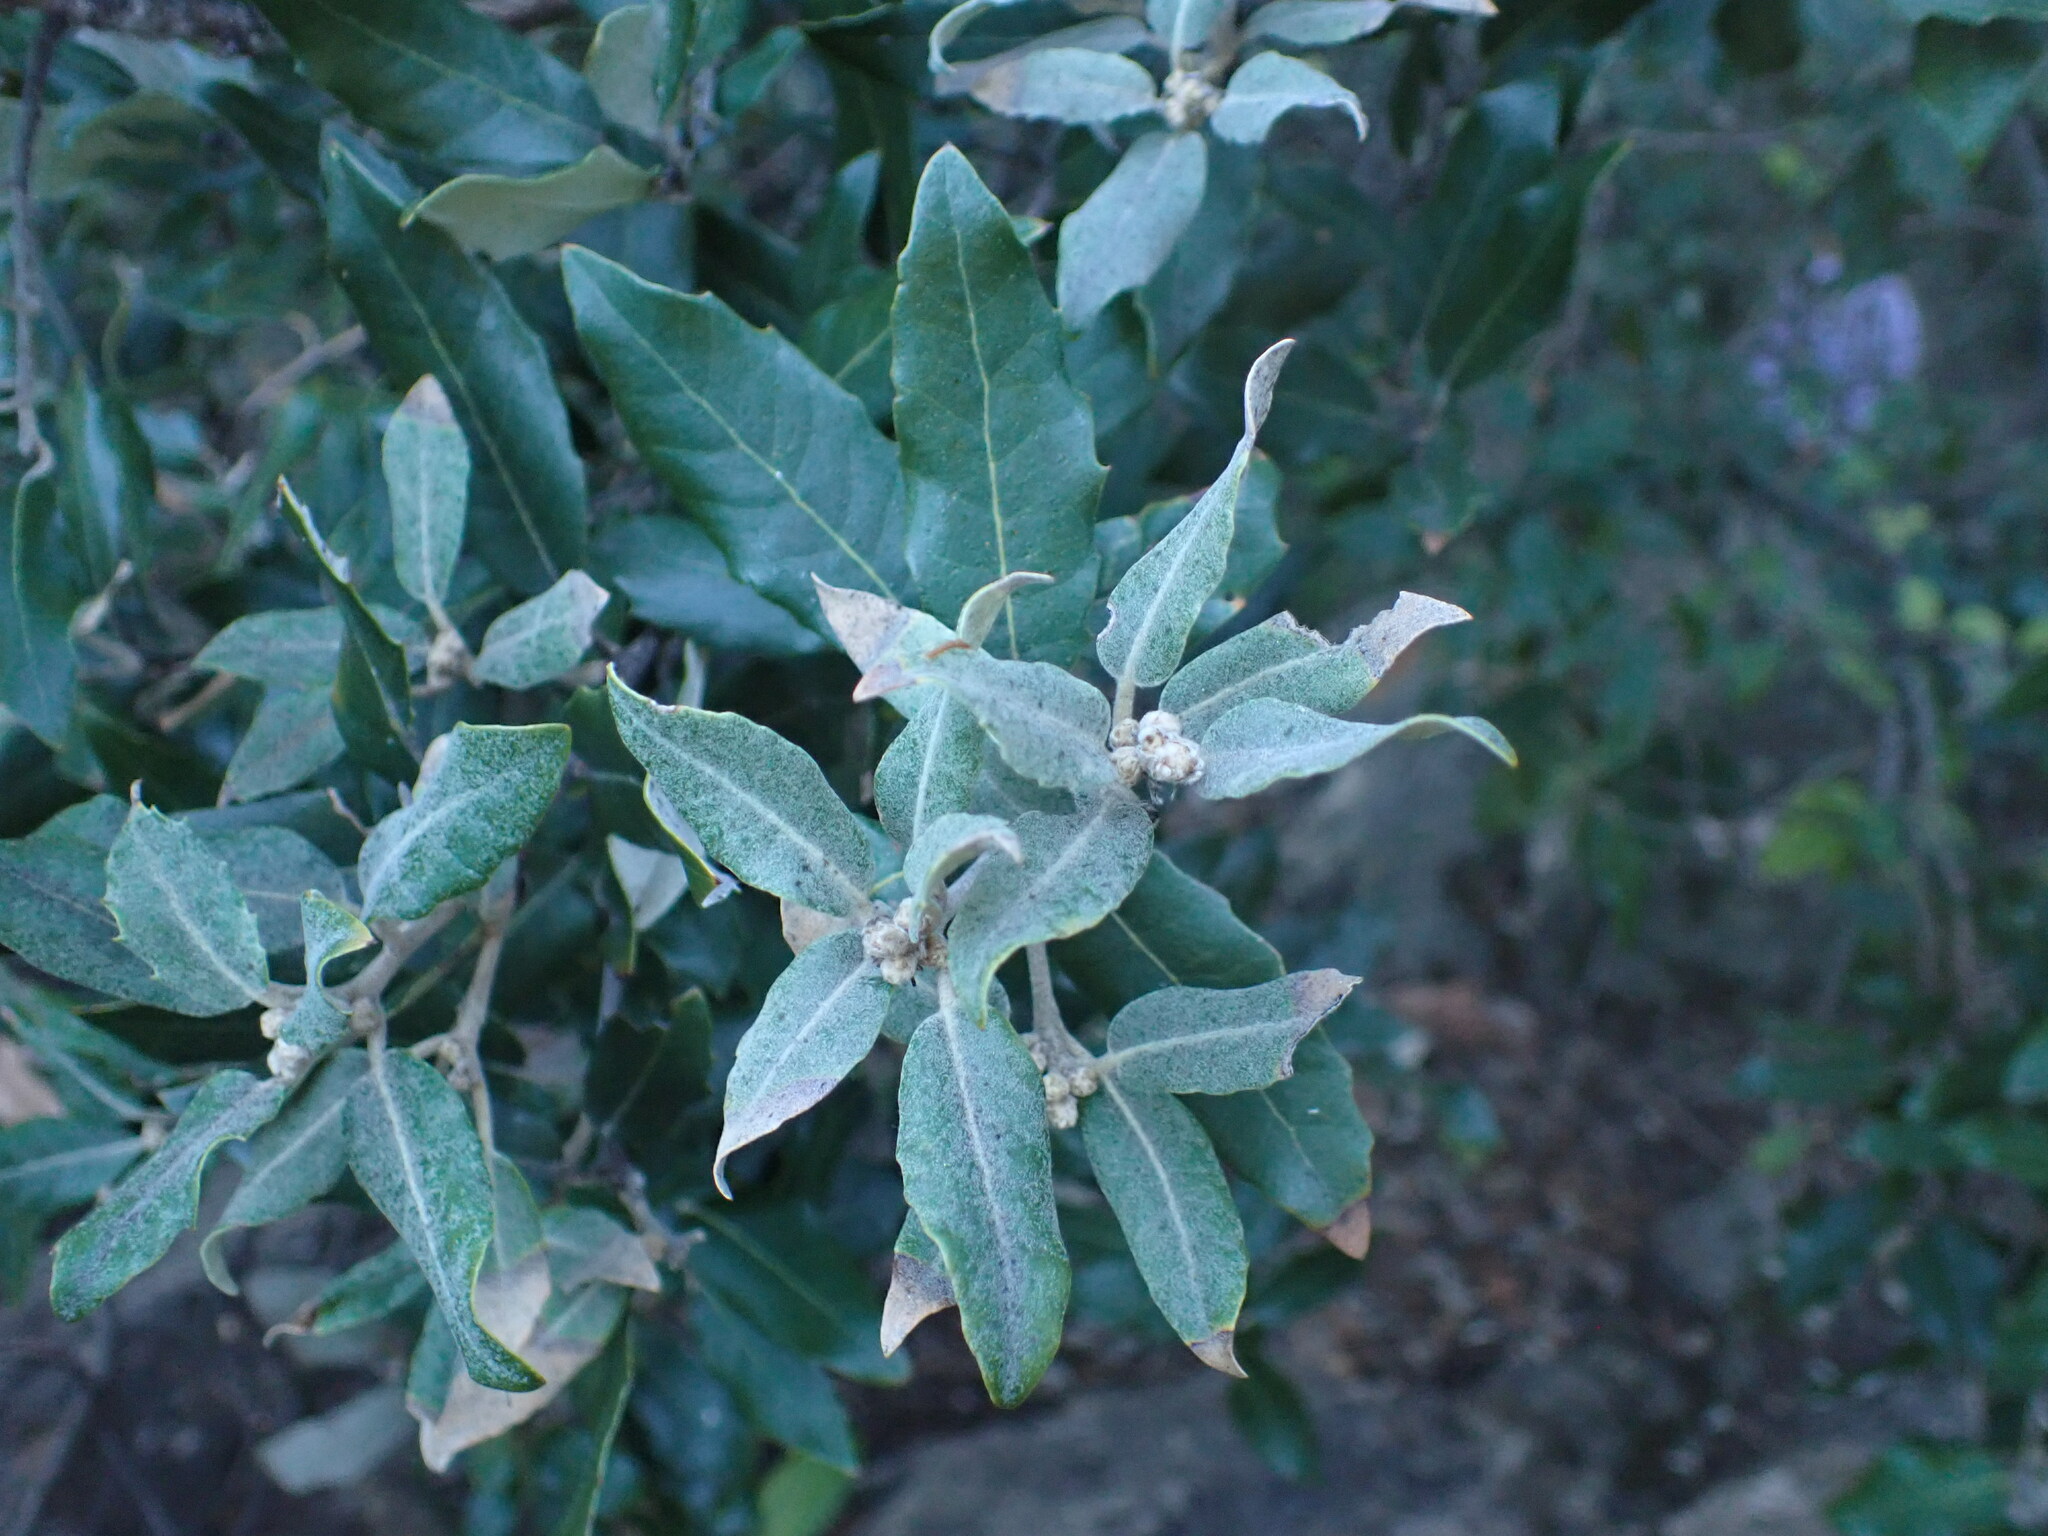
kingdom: Plantae
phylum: Tracheophyta
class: Magnoliopsida
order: Fagales
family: Fagaceae
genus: Quercus
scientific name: Quercus ilex
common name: Evergreen oak
